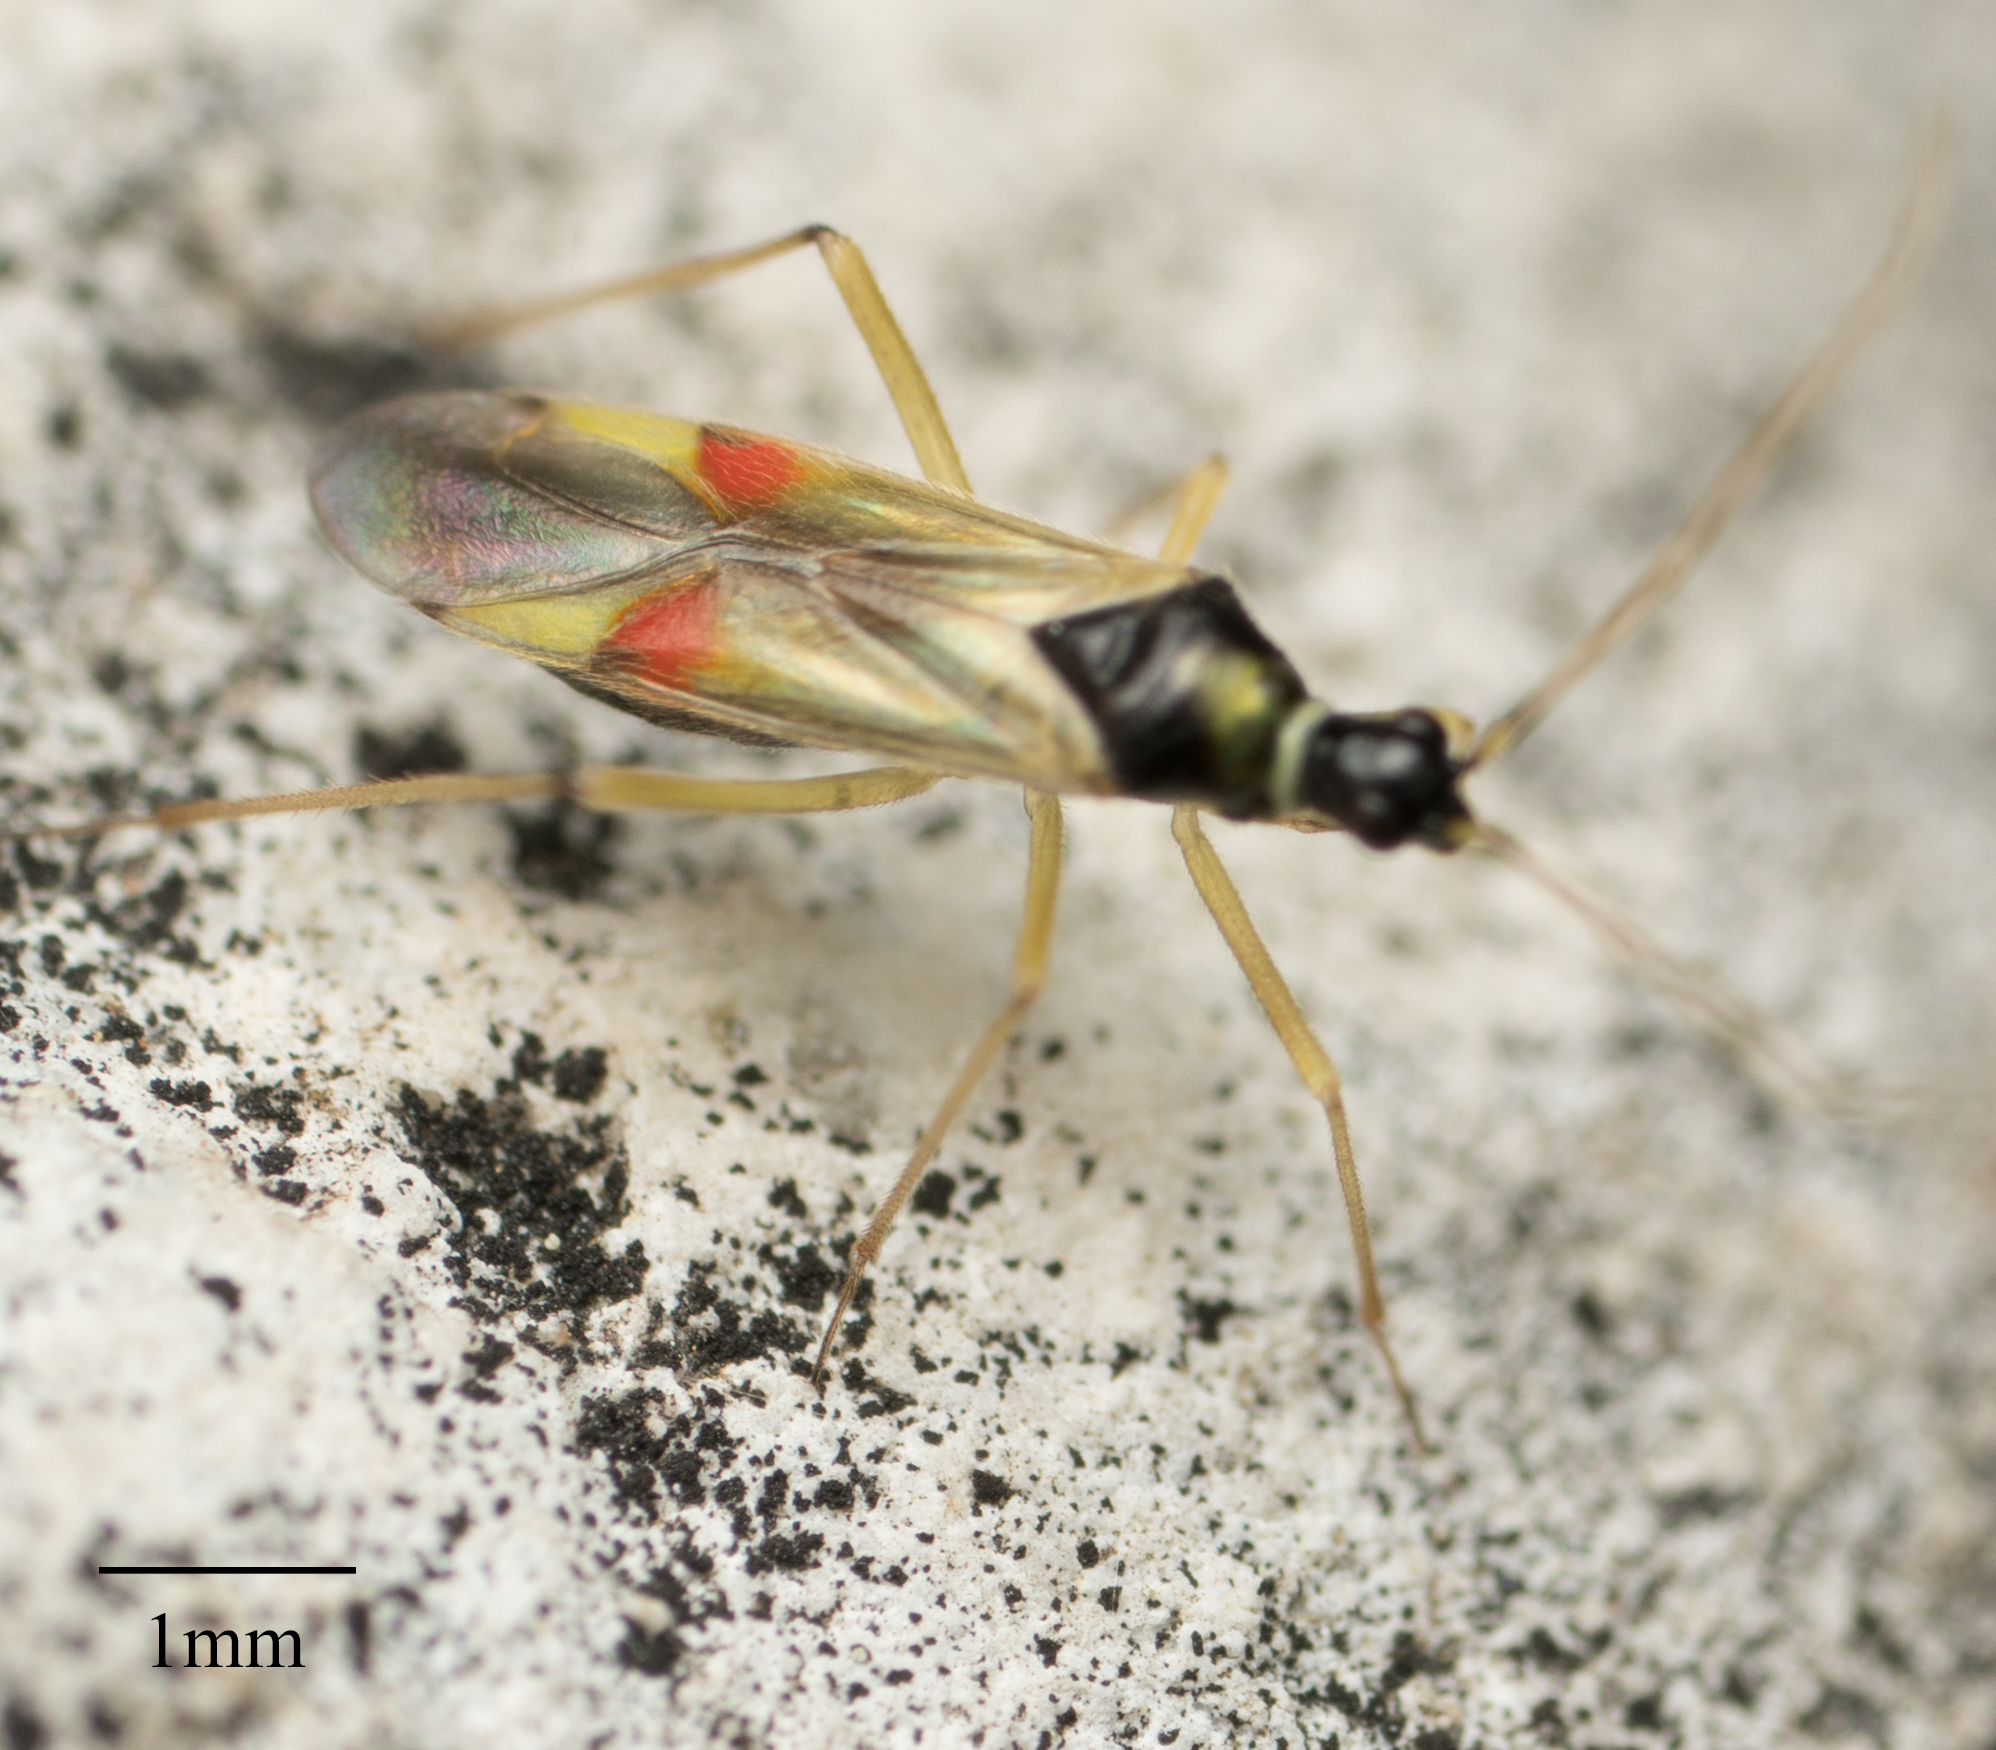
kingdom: Animalia
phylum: Arthropoda
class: Insecta
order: Hemiptera
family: Miridae
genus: Tupiocoris
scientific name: Tupiocoris californicus
